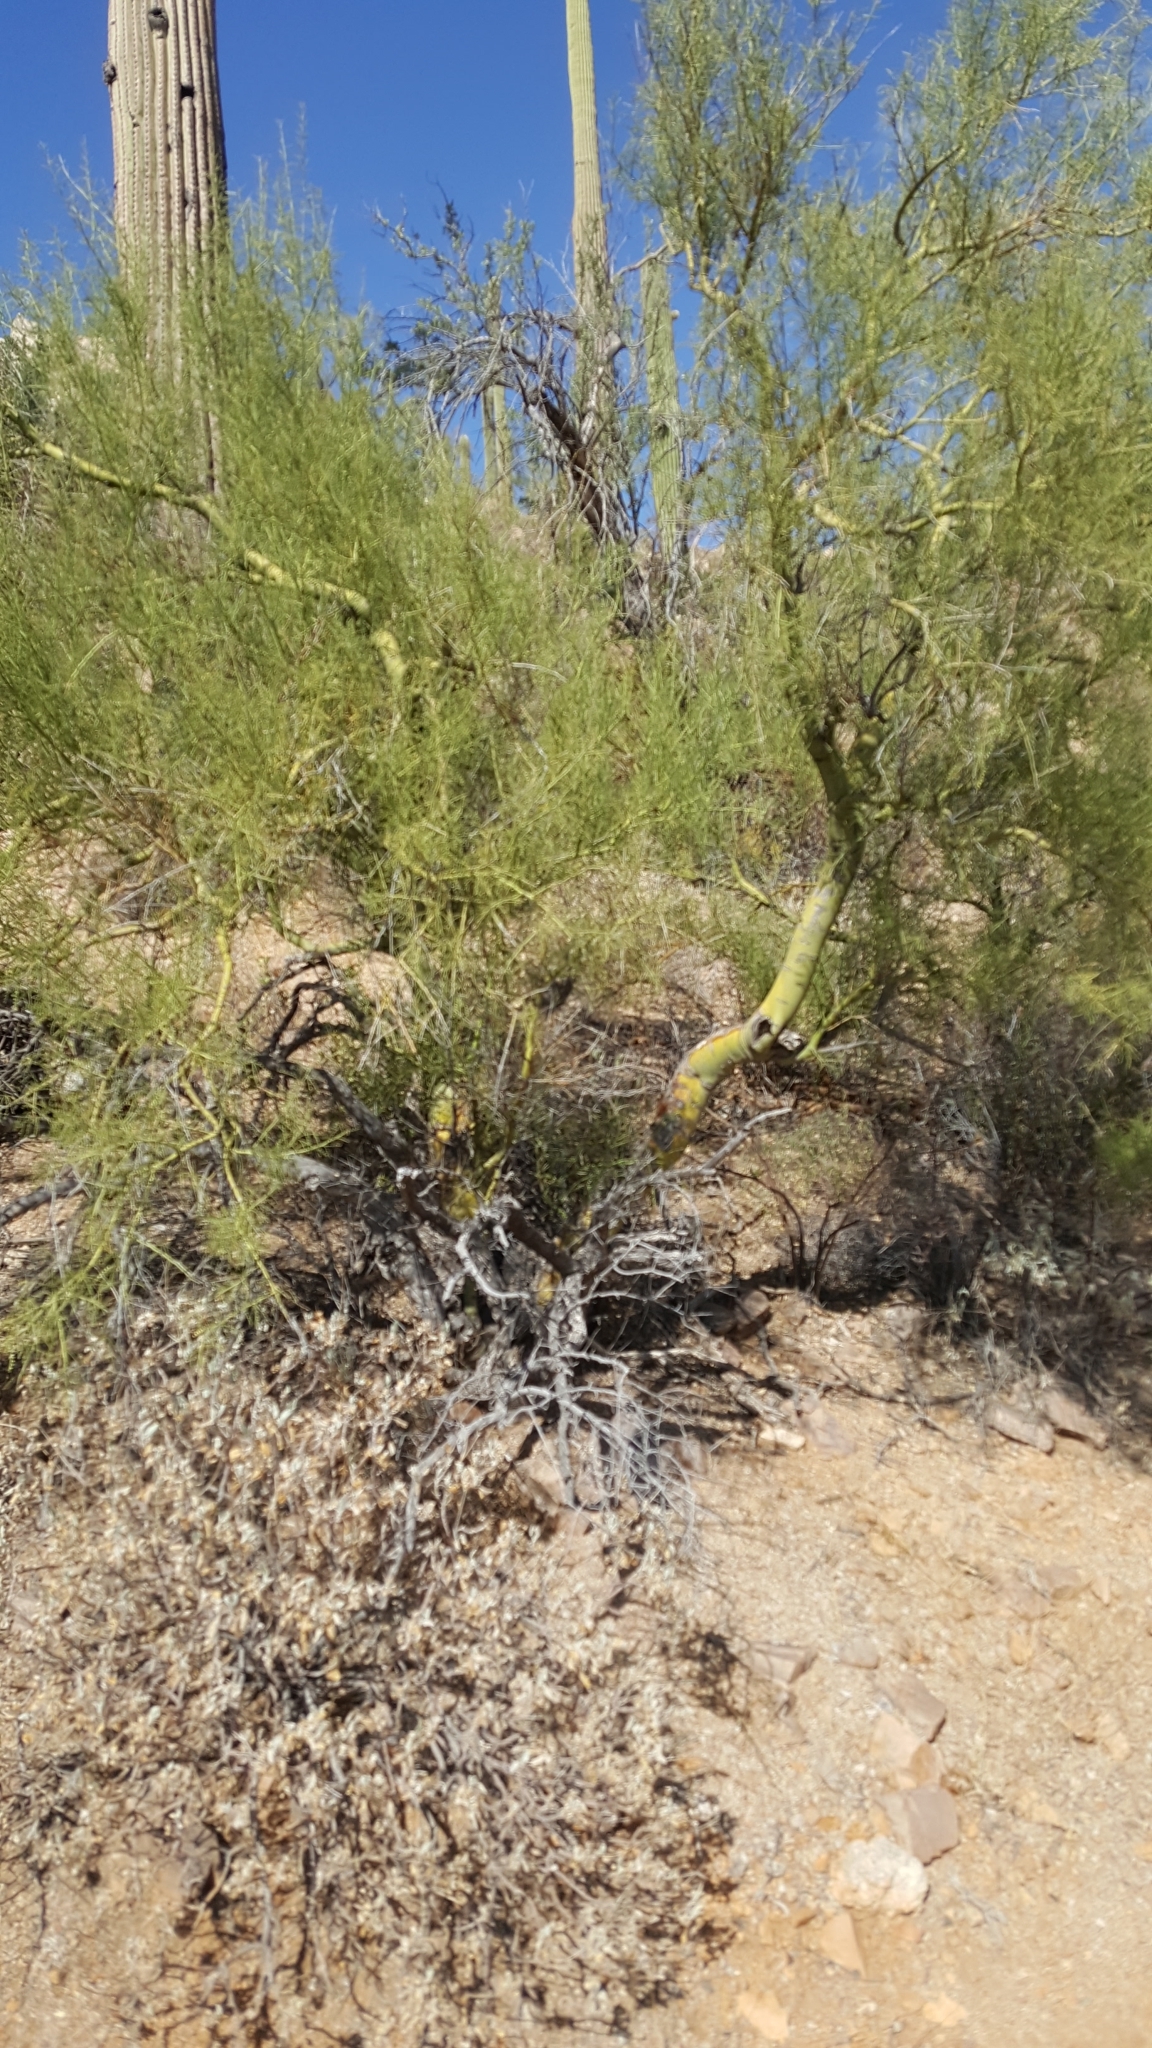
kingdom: Plantae
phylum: Tracheophyta
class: Magnoliopsida
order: Fabales
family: Fabaceae
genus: Parkinsonia
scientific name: Parkinsonia microphylla
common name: Yellow paloverde
